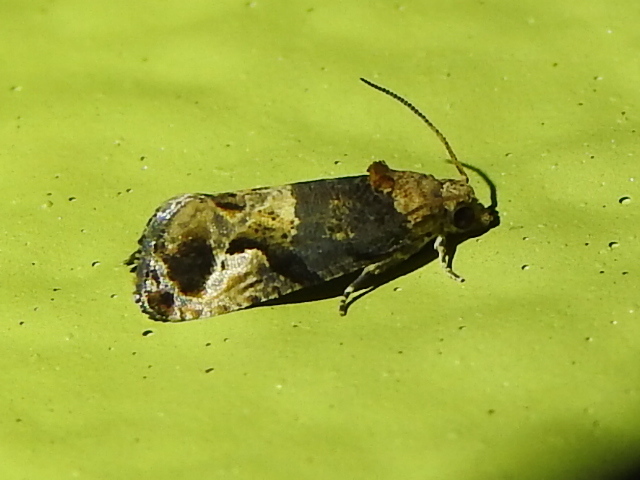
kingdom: Animalia
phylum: Arthropoda
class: Insecta
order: Lepidoptera
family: Tortricidae
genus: Paralobesia
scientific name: Paralobesia viteana
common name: Grape berry moth
